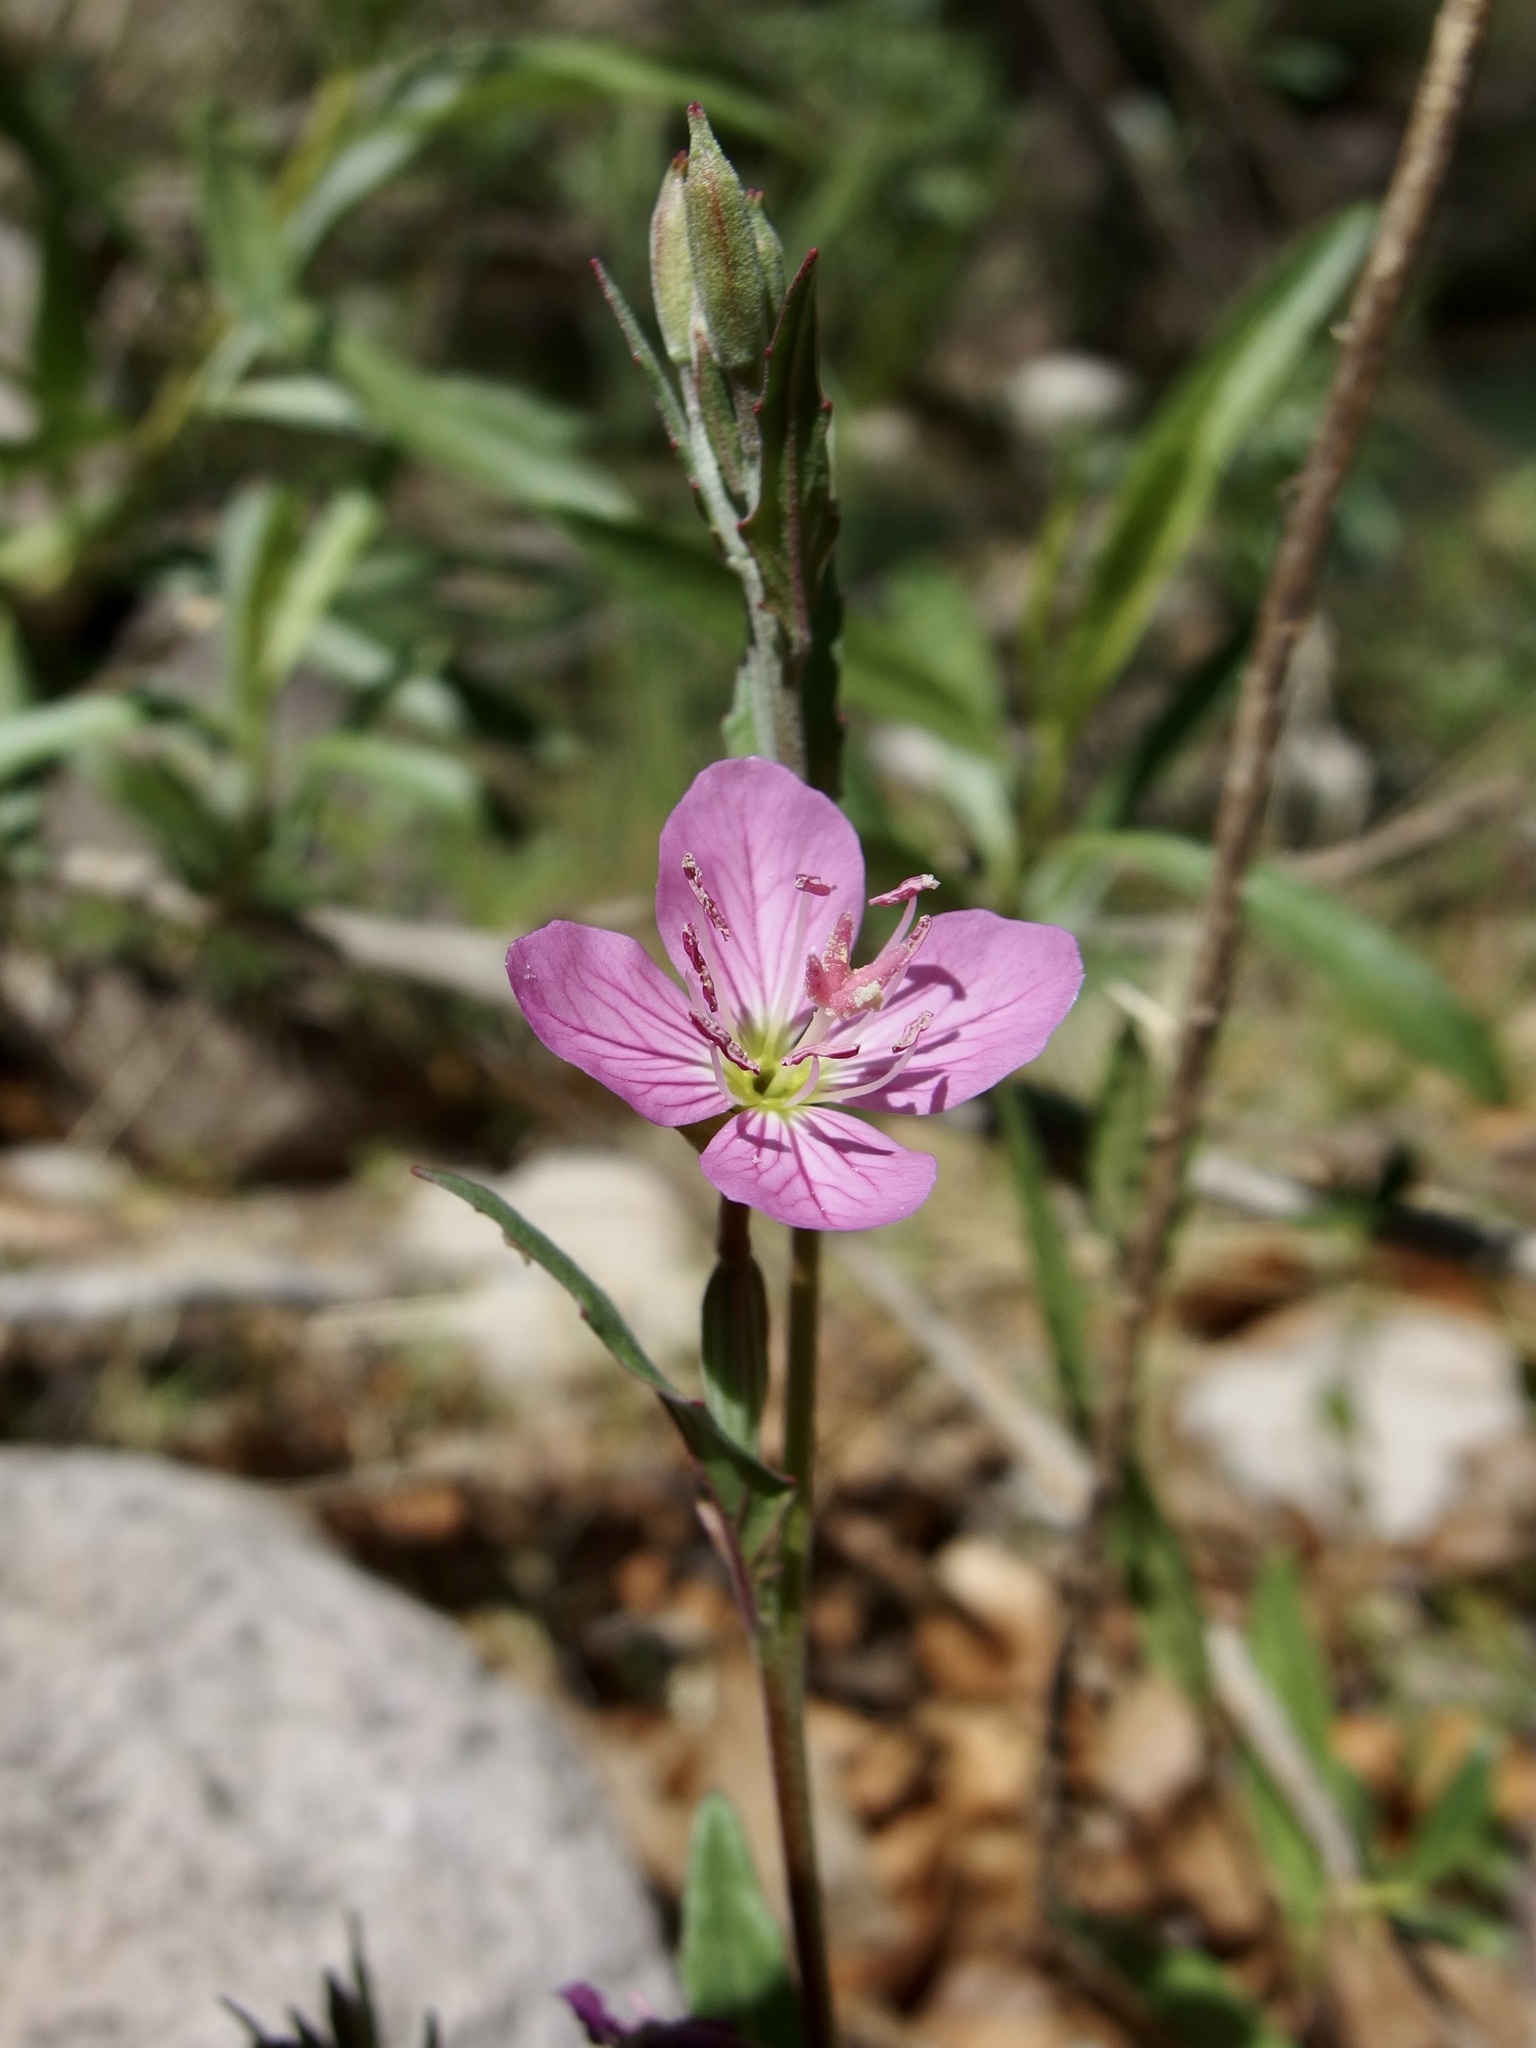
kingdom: Plantae
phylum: Tracheophyta
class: Magnoliopsida
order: Myrtales
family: Onagraceae
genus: Oenothera
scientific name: Oenothera rosea
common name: Rosy evening-primrose
